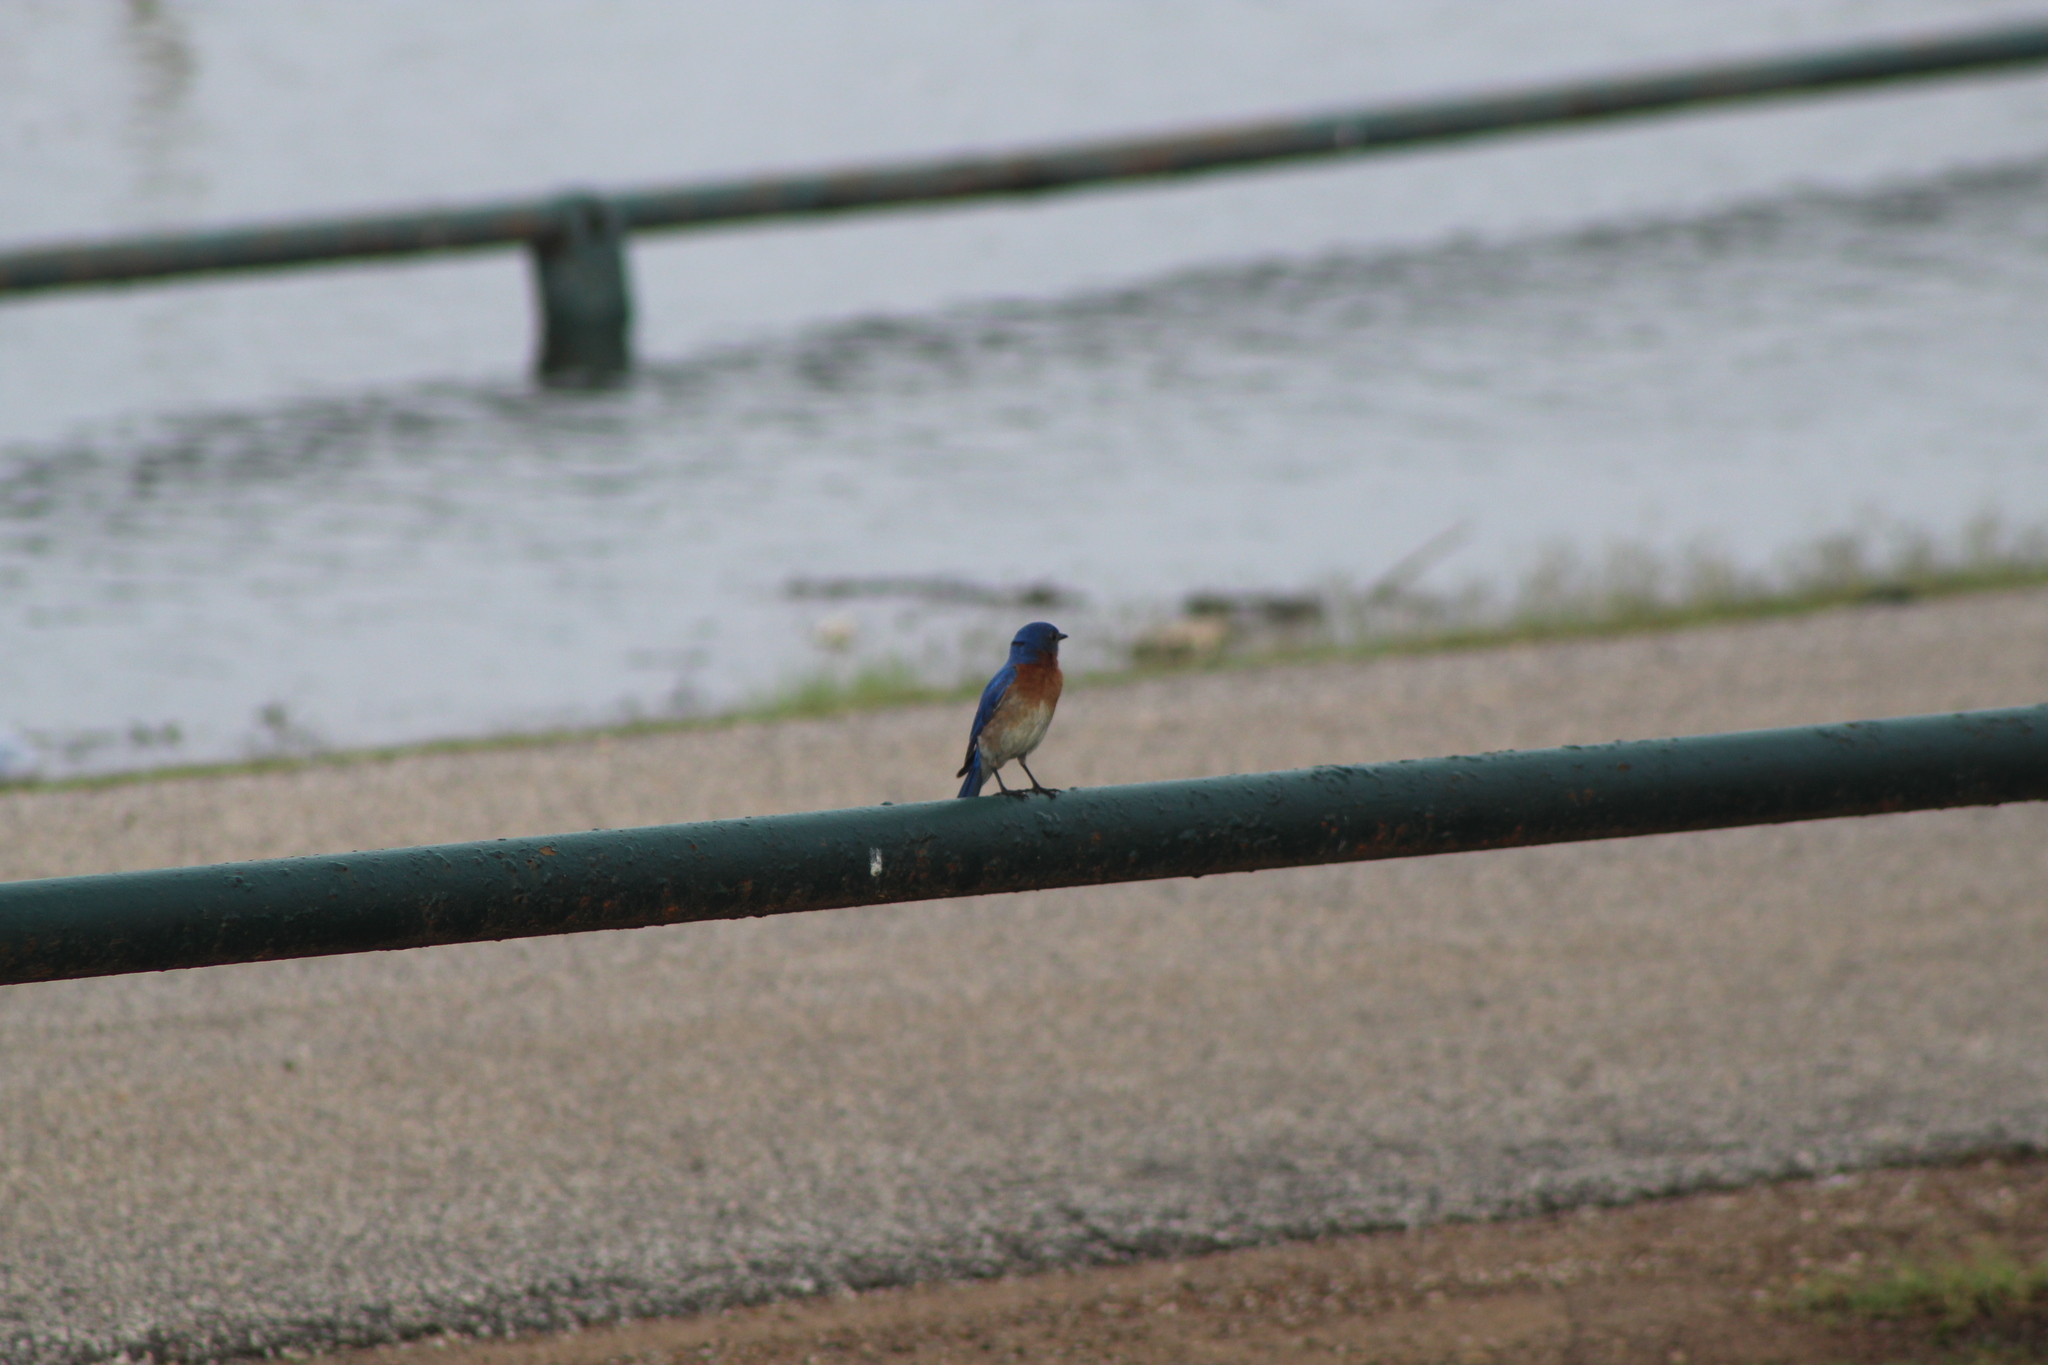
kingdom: Animalia
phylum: Chordata
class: Aves
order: Passeriformes
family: Turdidae
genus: Sialia
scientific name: Sialia sialis
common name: Eastern bluebird
